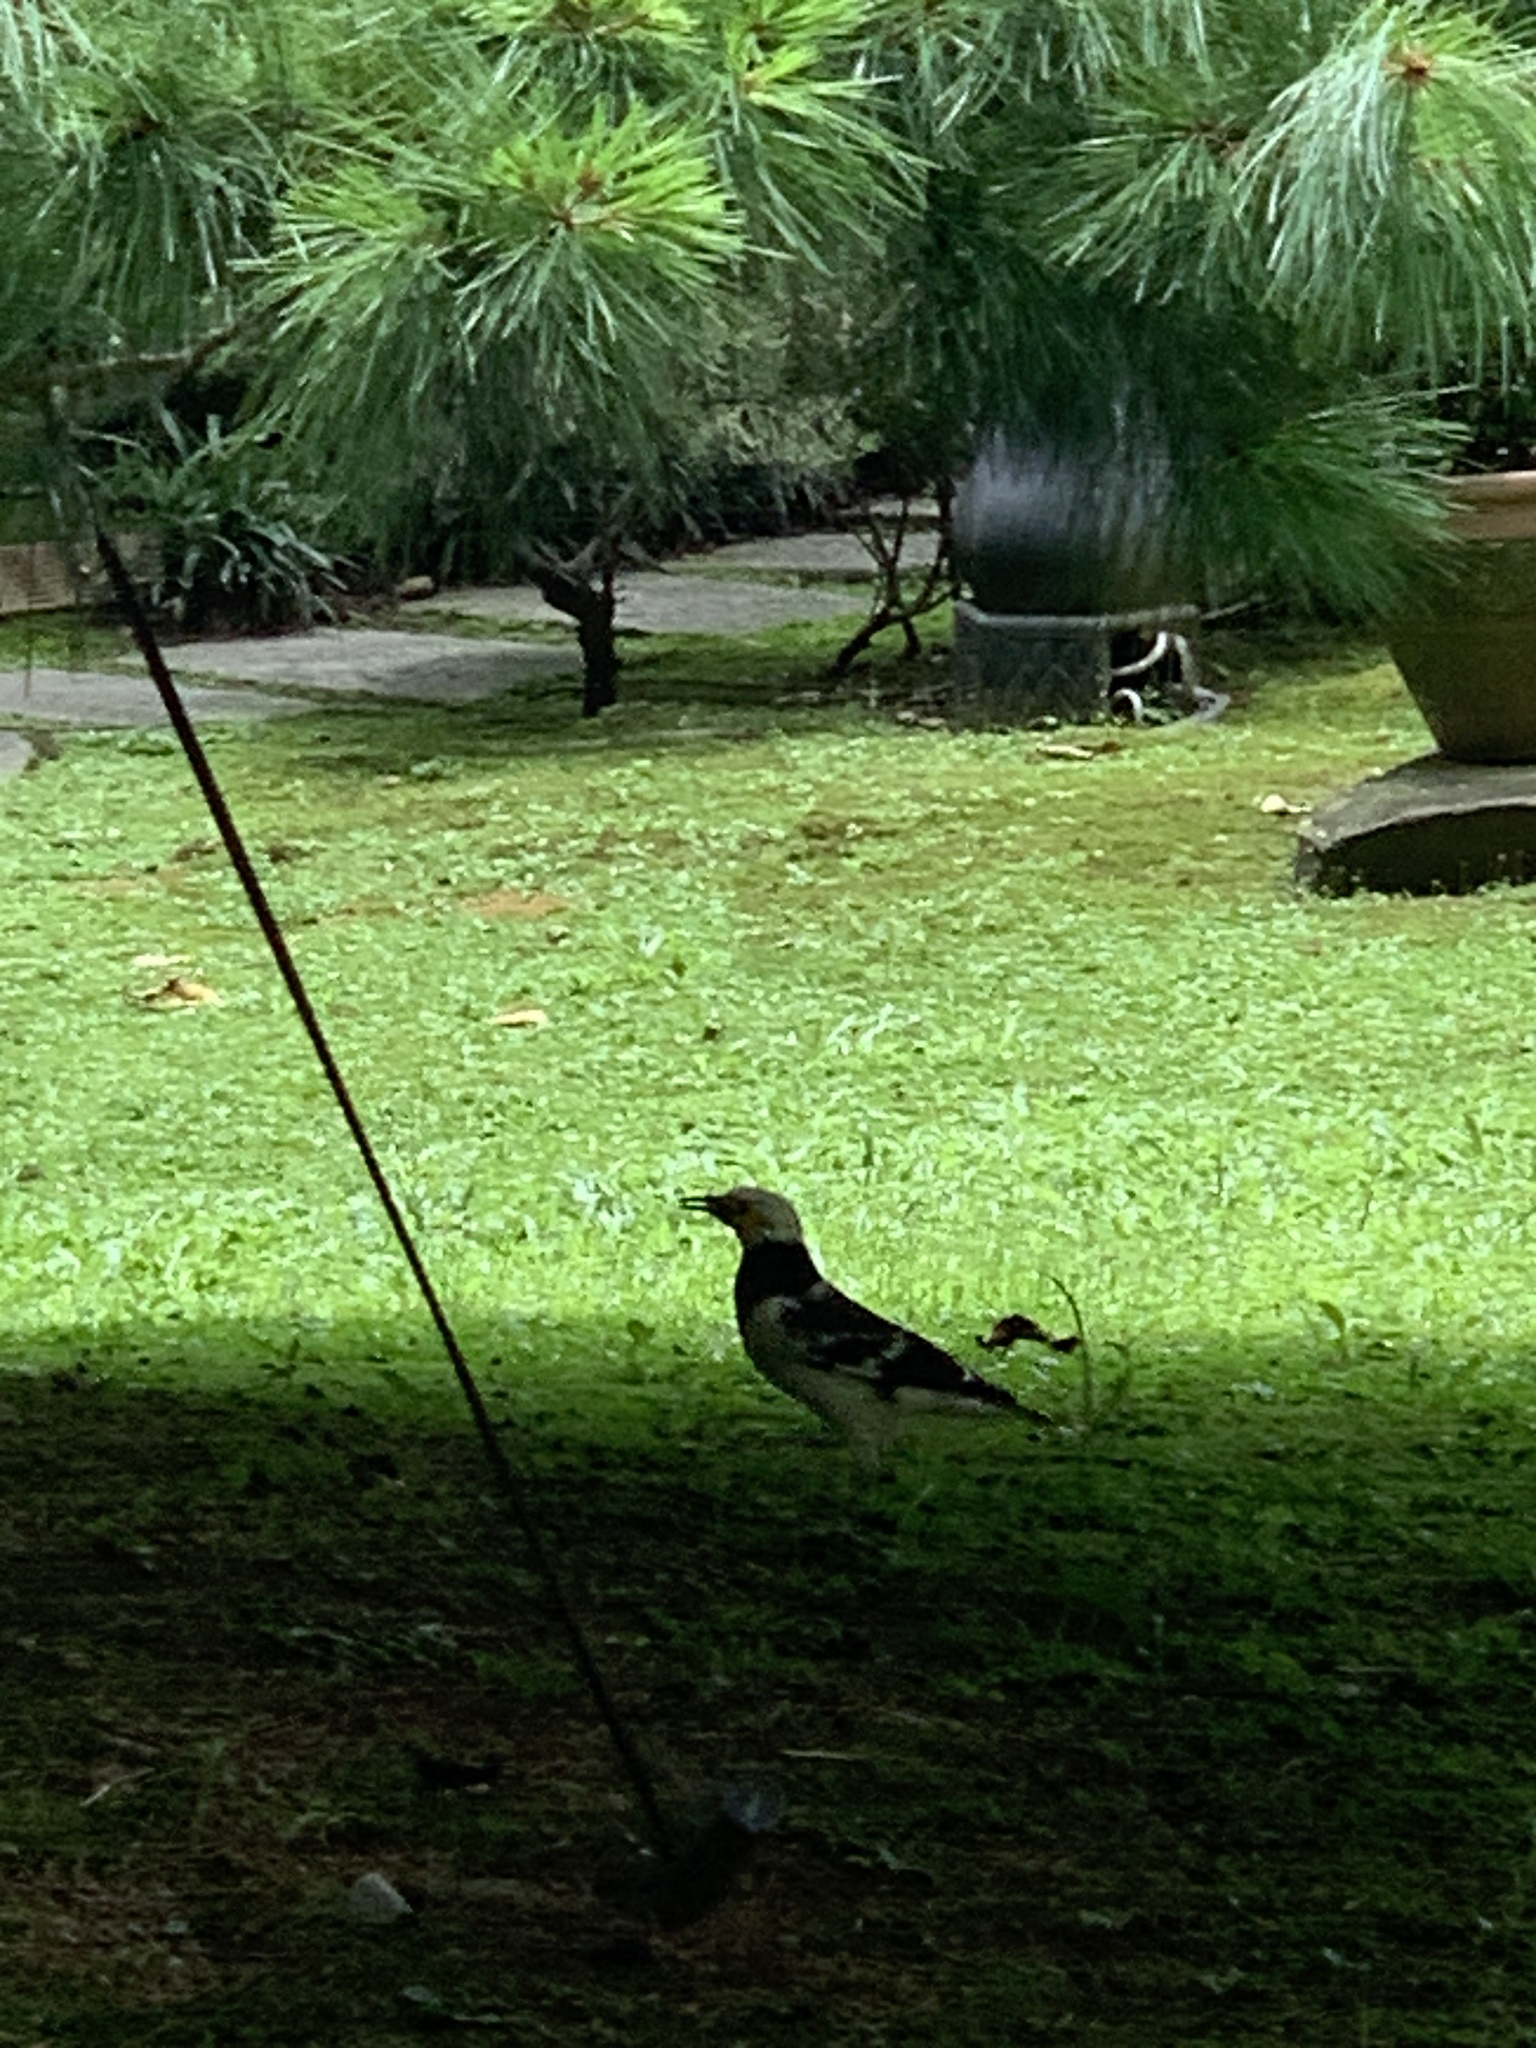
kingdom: Animalia
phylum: Chordata
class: Aves
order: Passeriformes
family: Sturnidae
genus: Gracupica
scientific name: Gracupica nigricollis
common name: Black-collared starling
